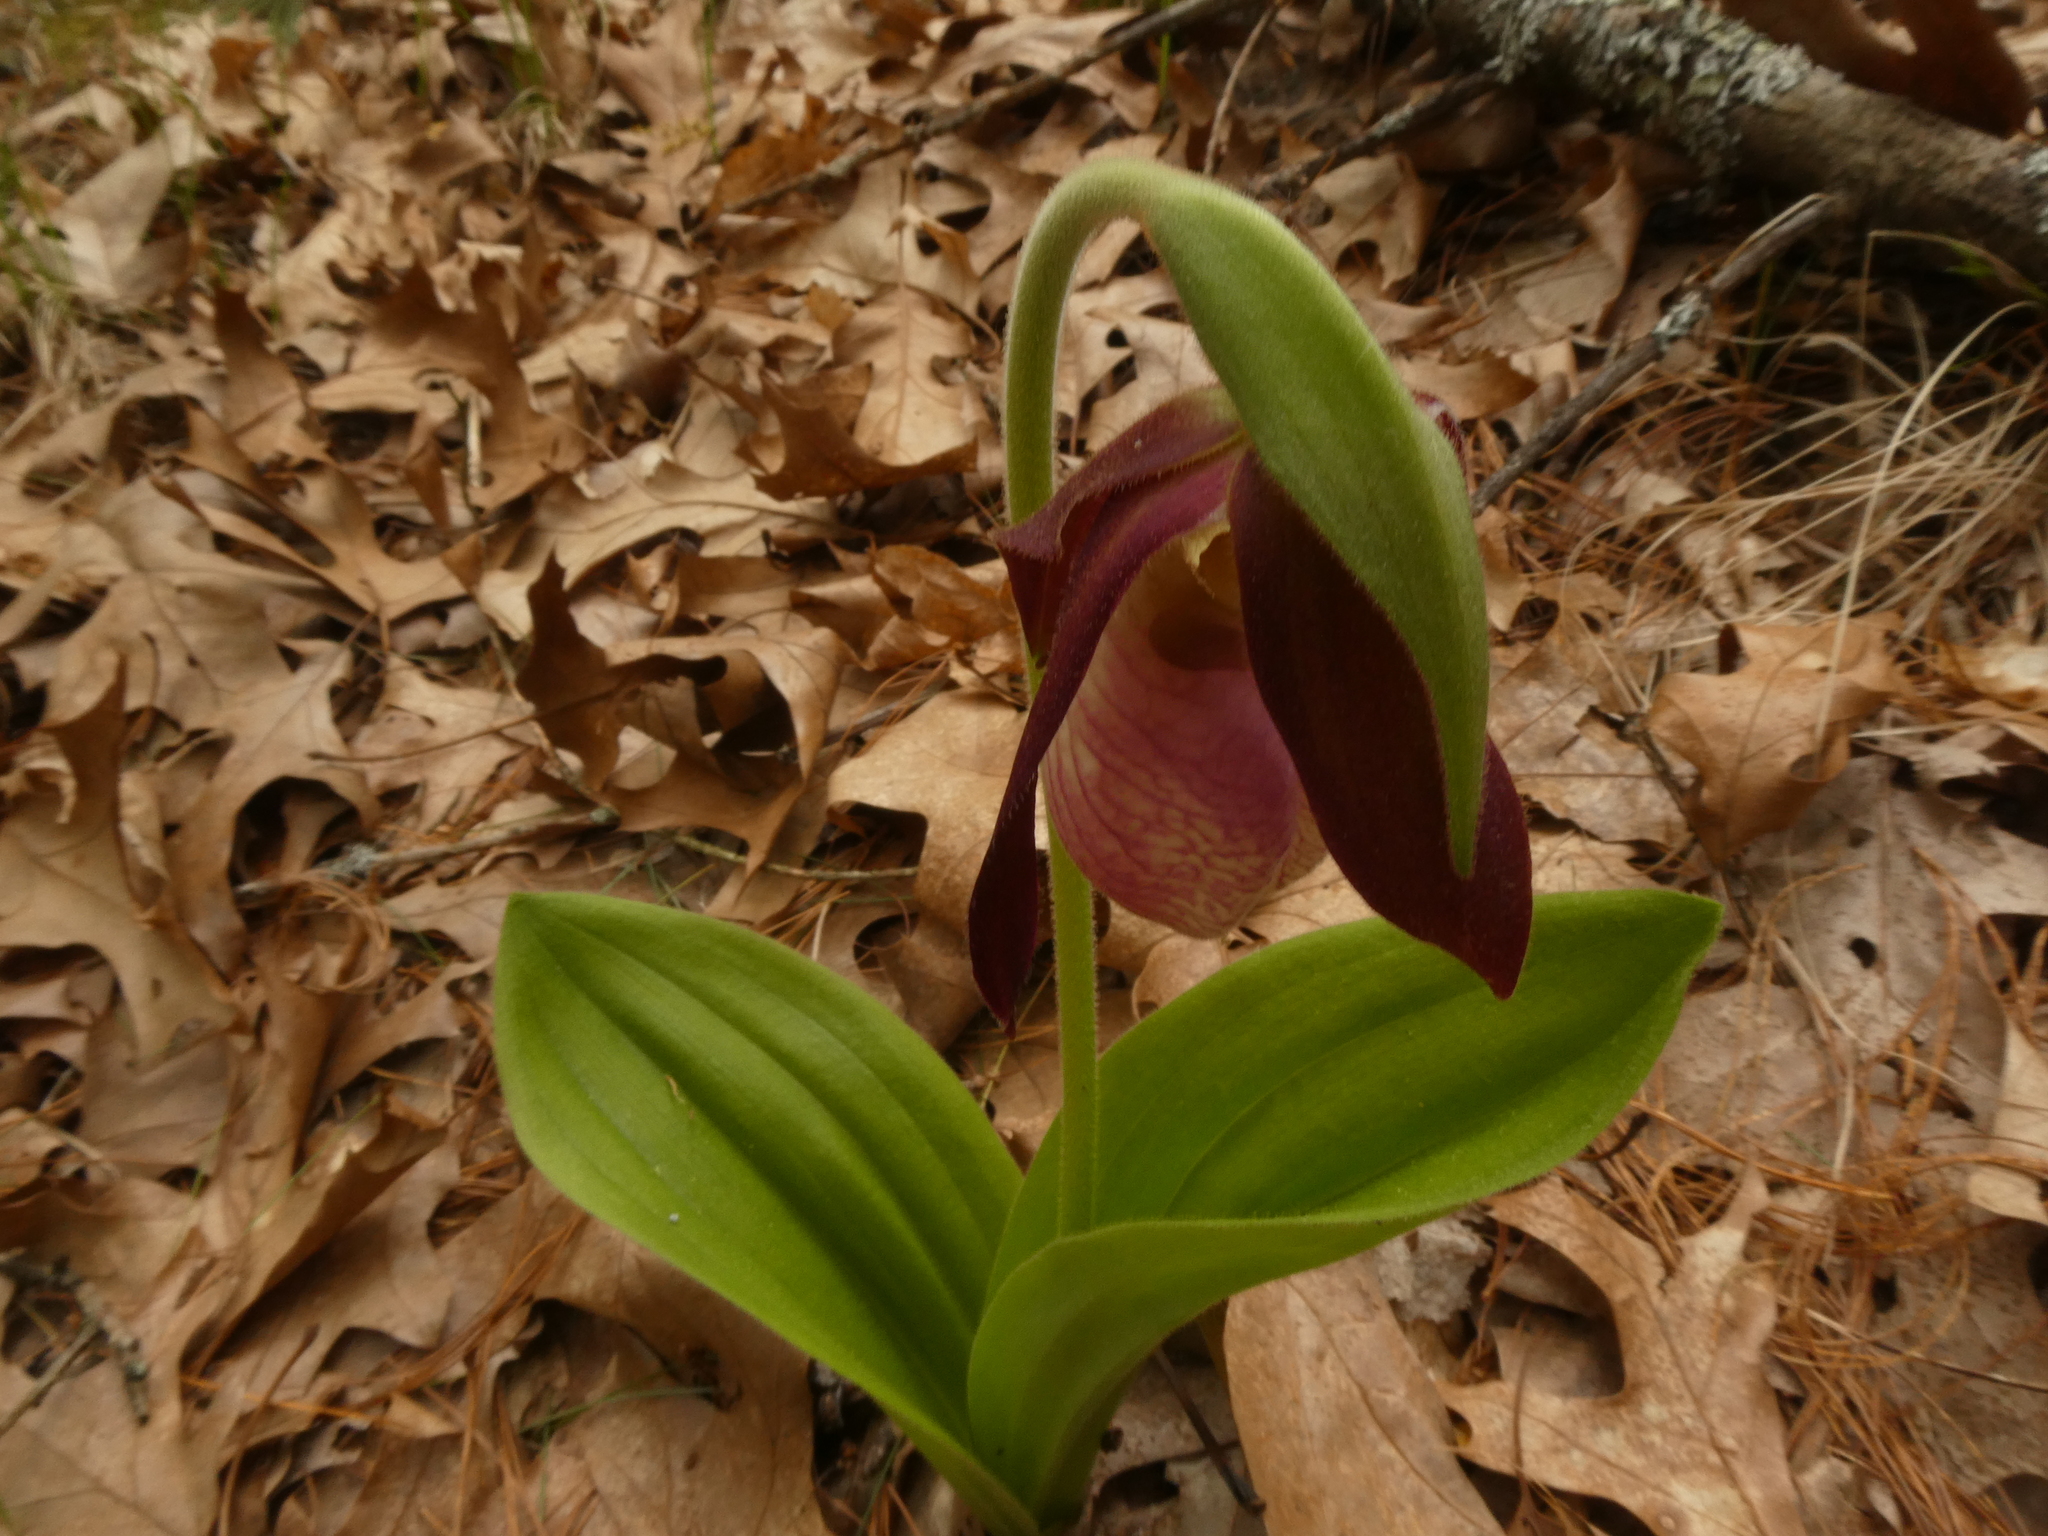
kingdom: Plantae
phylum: Tracheophyta
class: Liliopsida
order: Asparagales
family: Orchidaceae
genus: Cypripedium
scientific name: Cypripedium acaule
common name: Pink lady's-slipper
